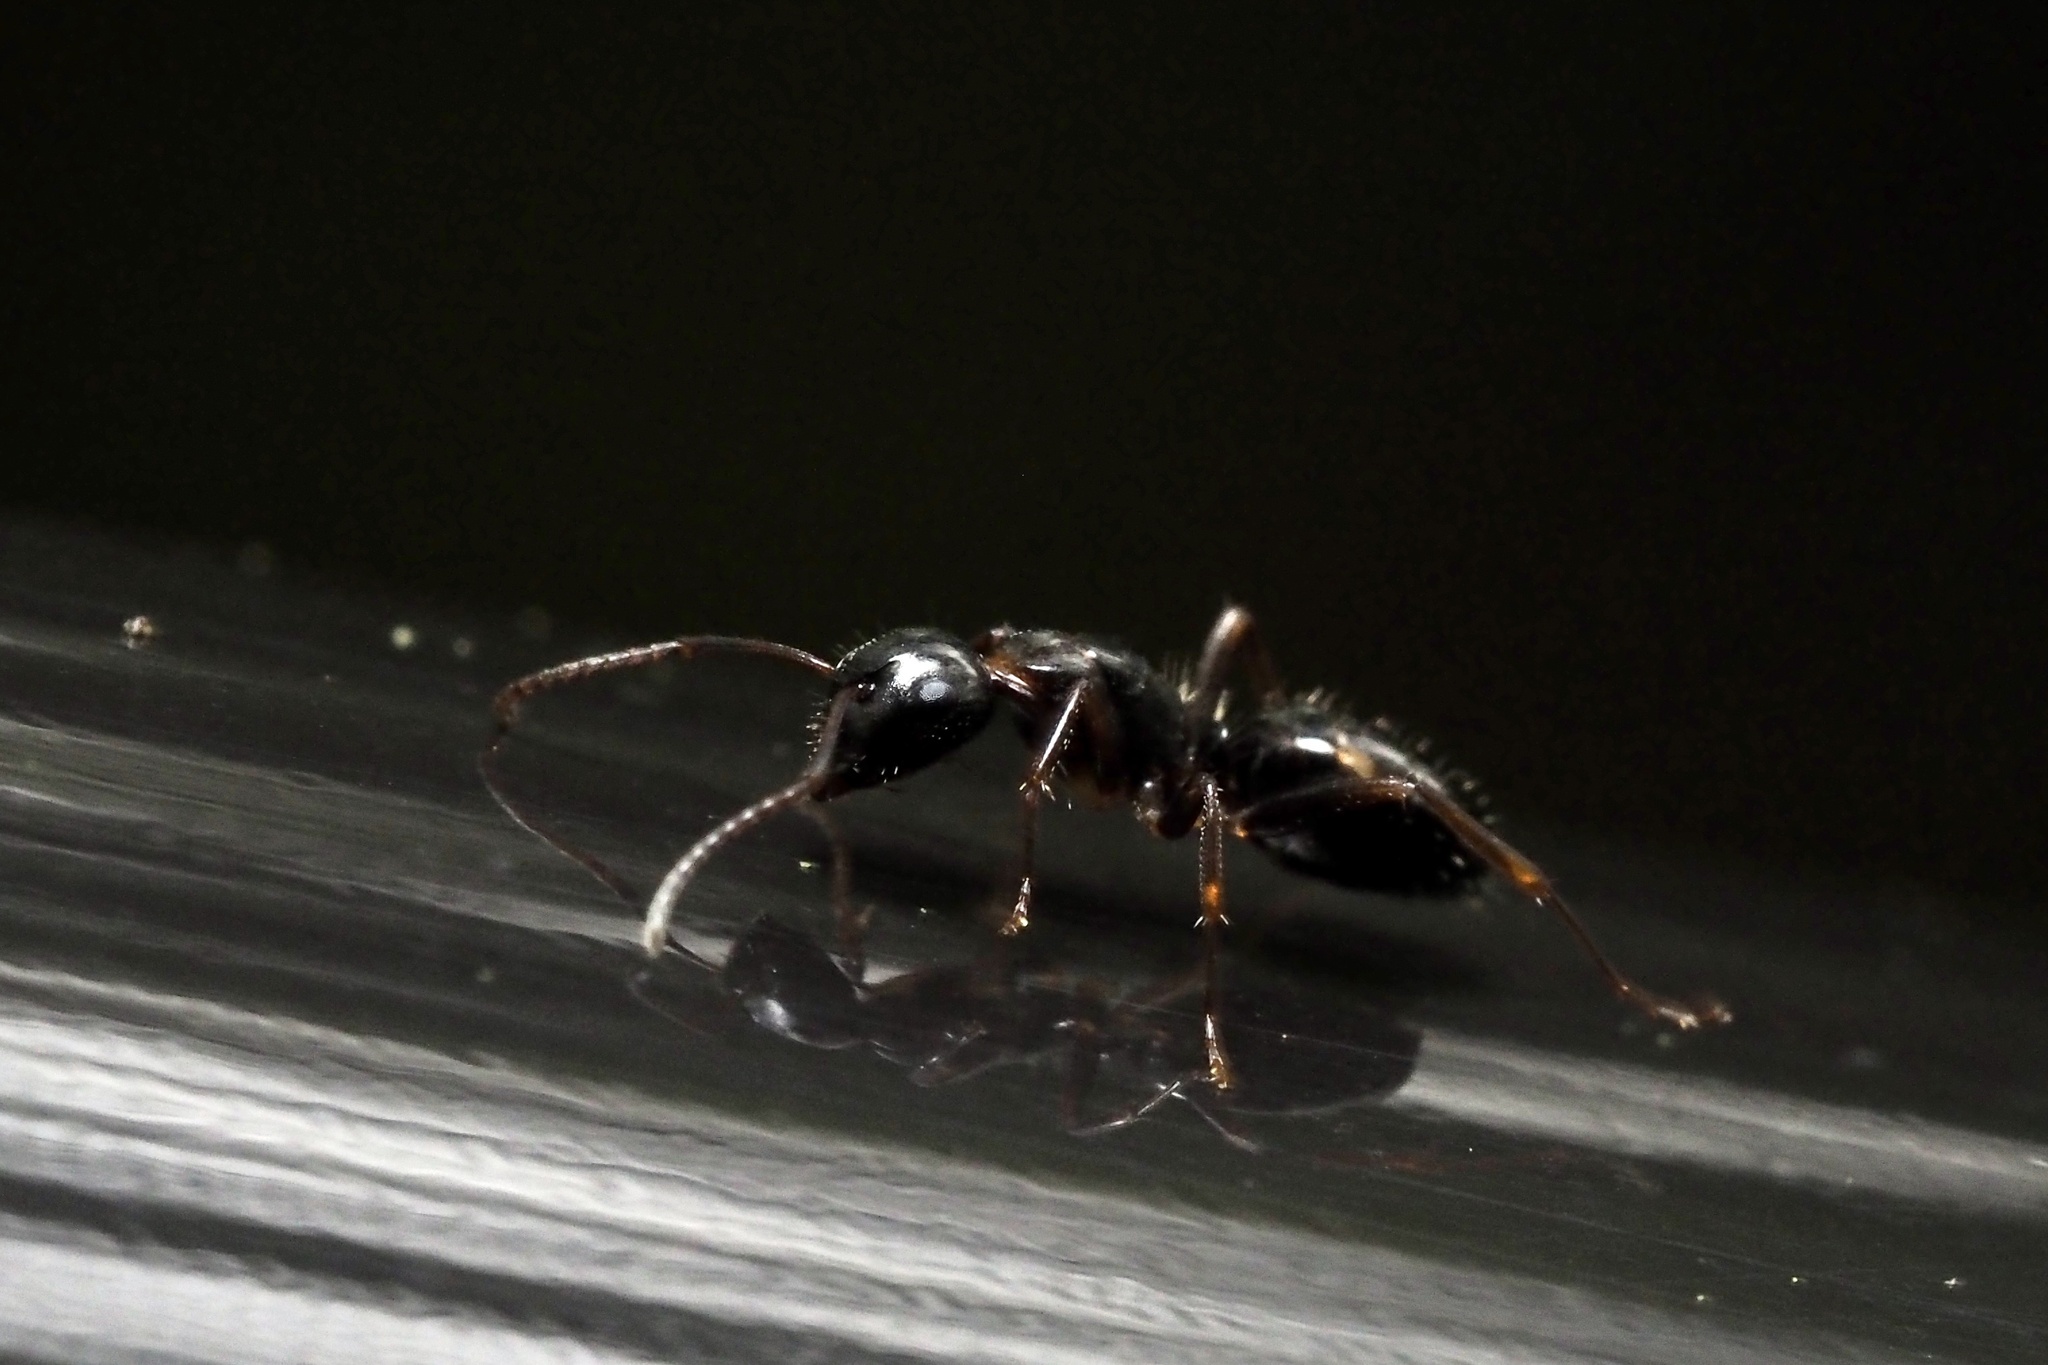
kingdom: Animalia
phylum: Arthropoda
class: Insecta
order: Hymenoptera
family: Formicidae
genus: Camponotus
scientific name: Camponotus quadrinotatus
